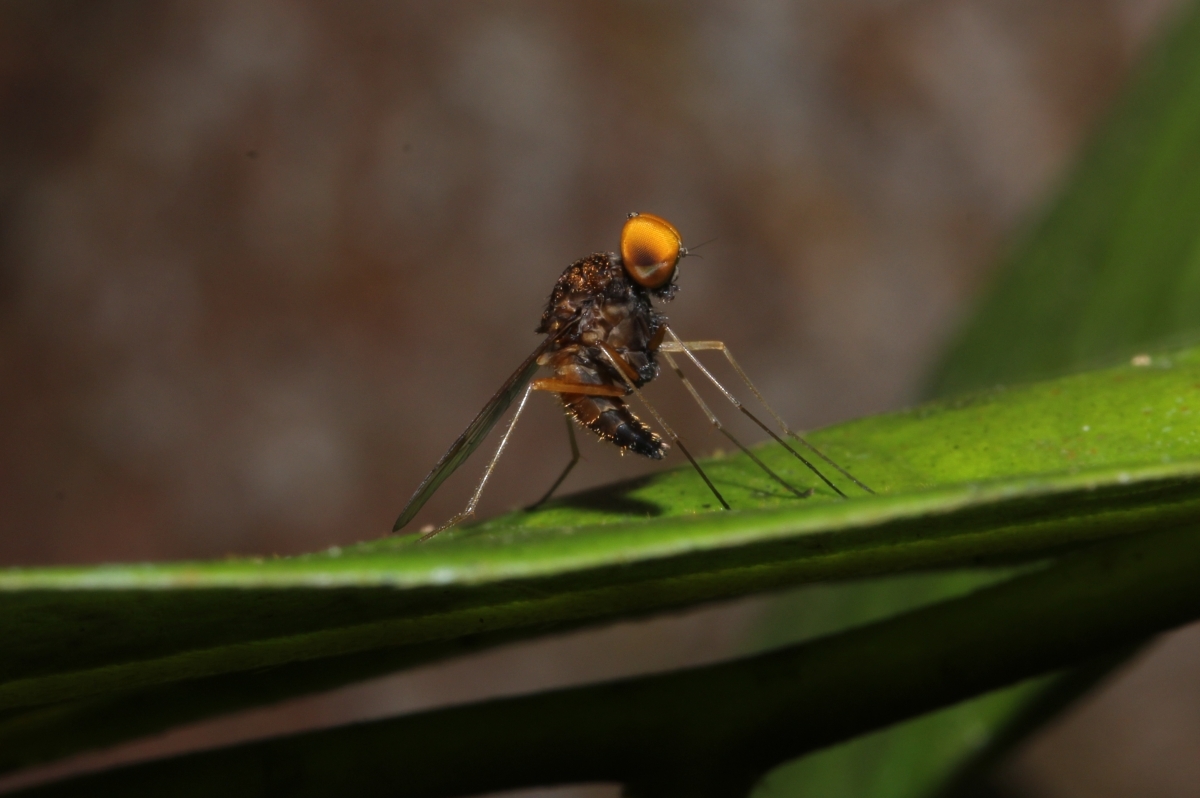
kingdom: Animalia
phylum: Arthropoda
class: Insecta
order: Diptera
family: Rhagionidae
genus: Chrysopilus
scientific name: Chrysopilus
